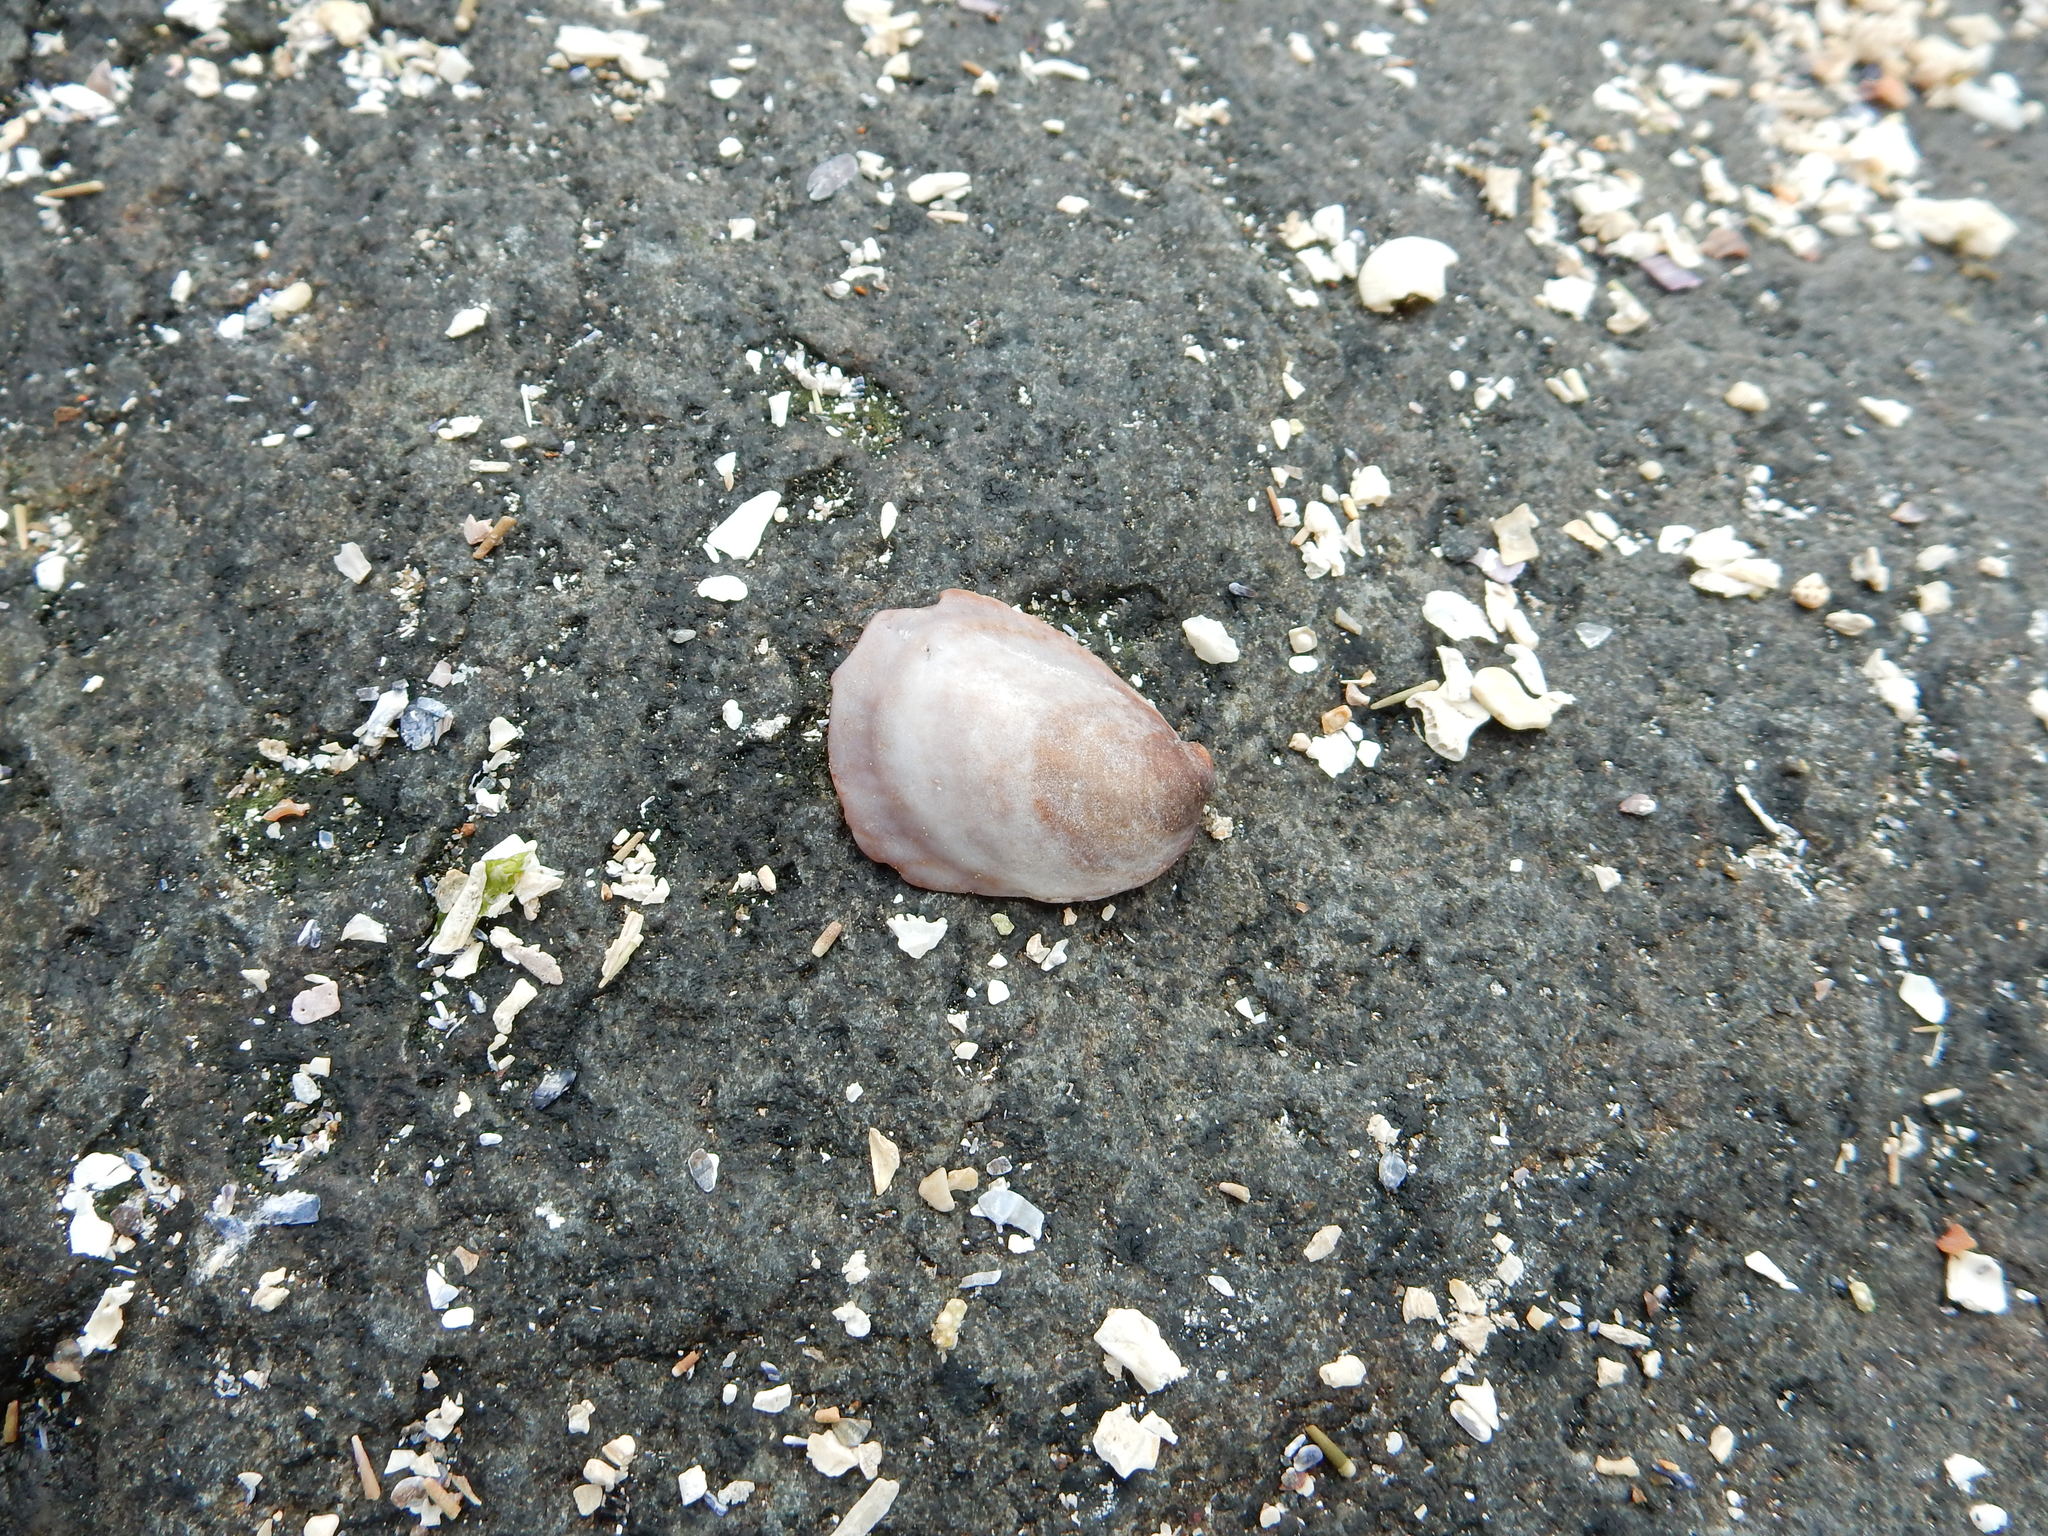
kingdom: Animalia
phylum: Mollusca
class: Gastropoda
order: Littorinimorpha
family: Calyptraeidae
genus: Crepidula
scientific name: Crepidula fornicata
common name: Slipper limpet
